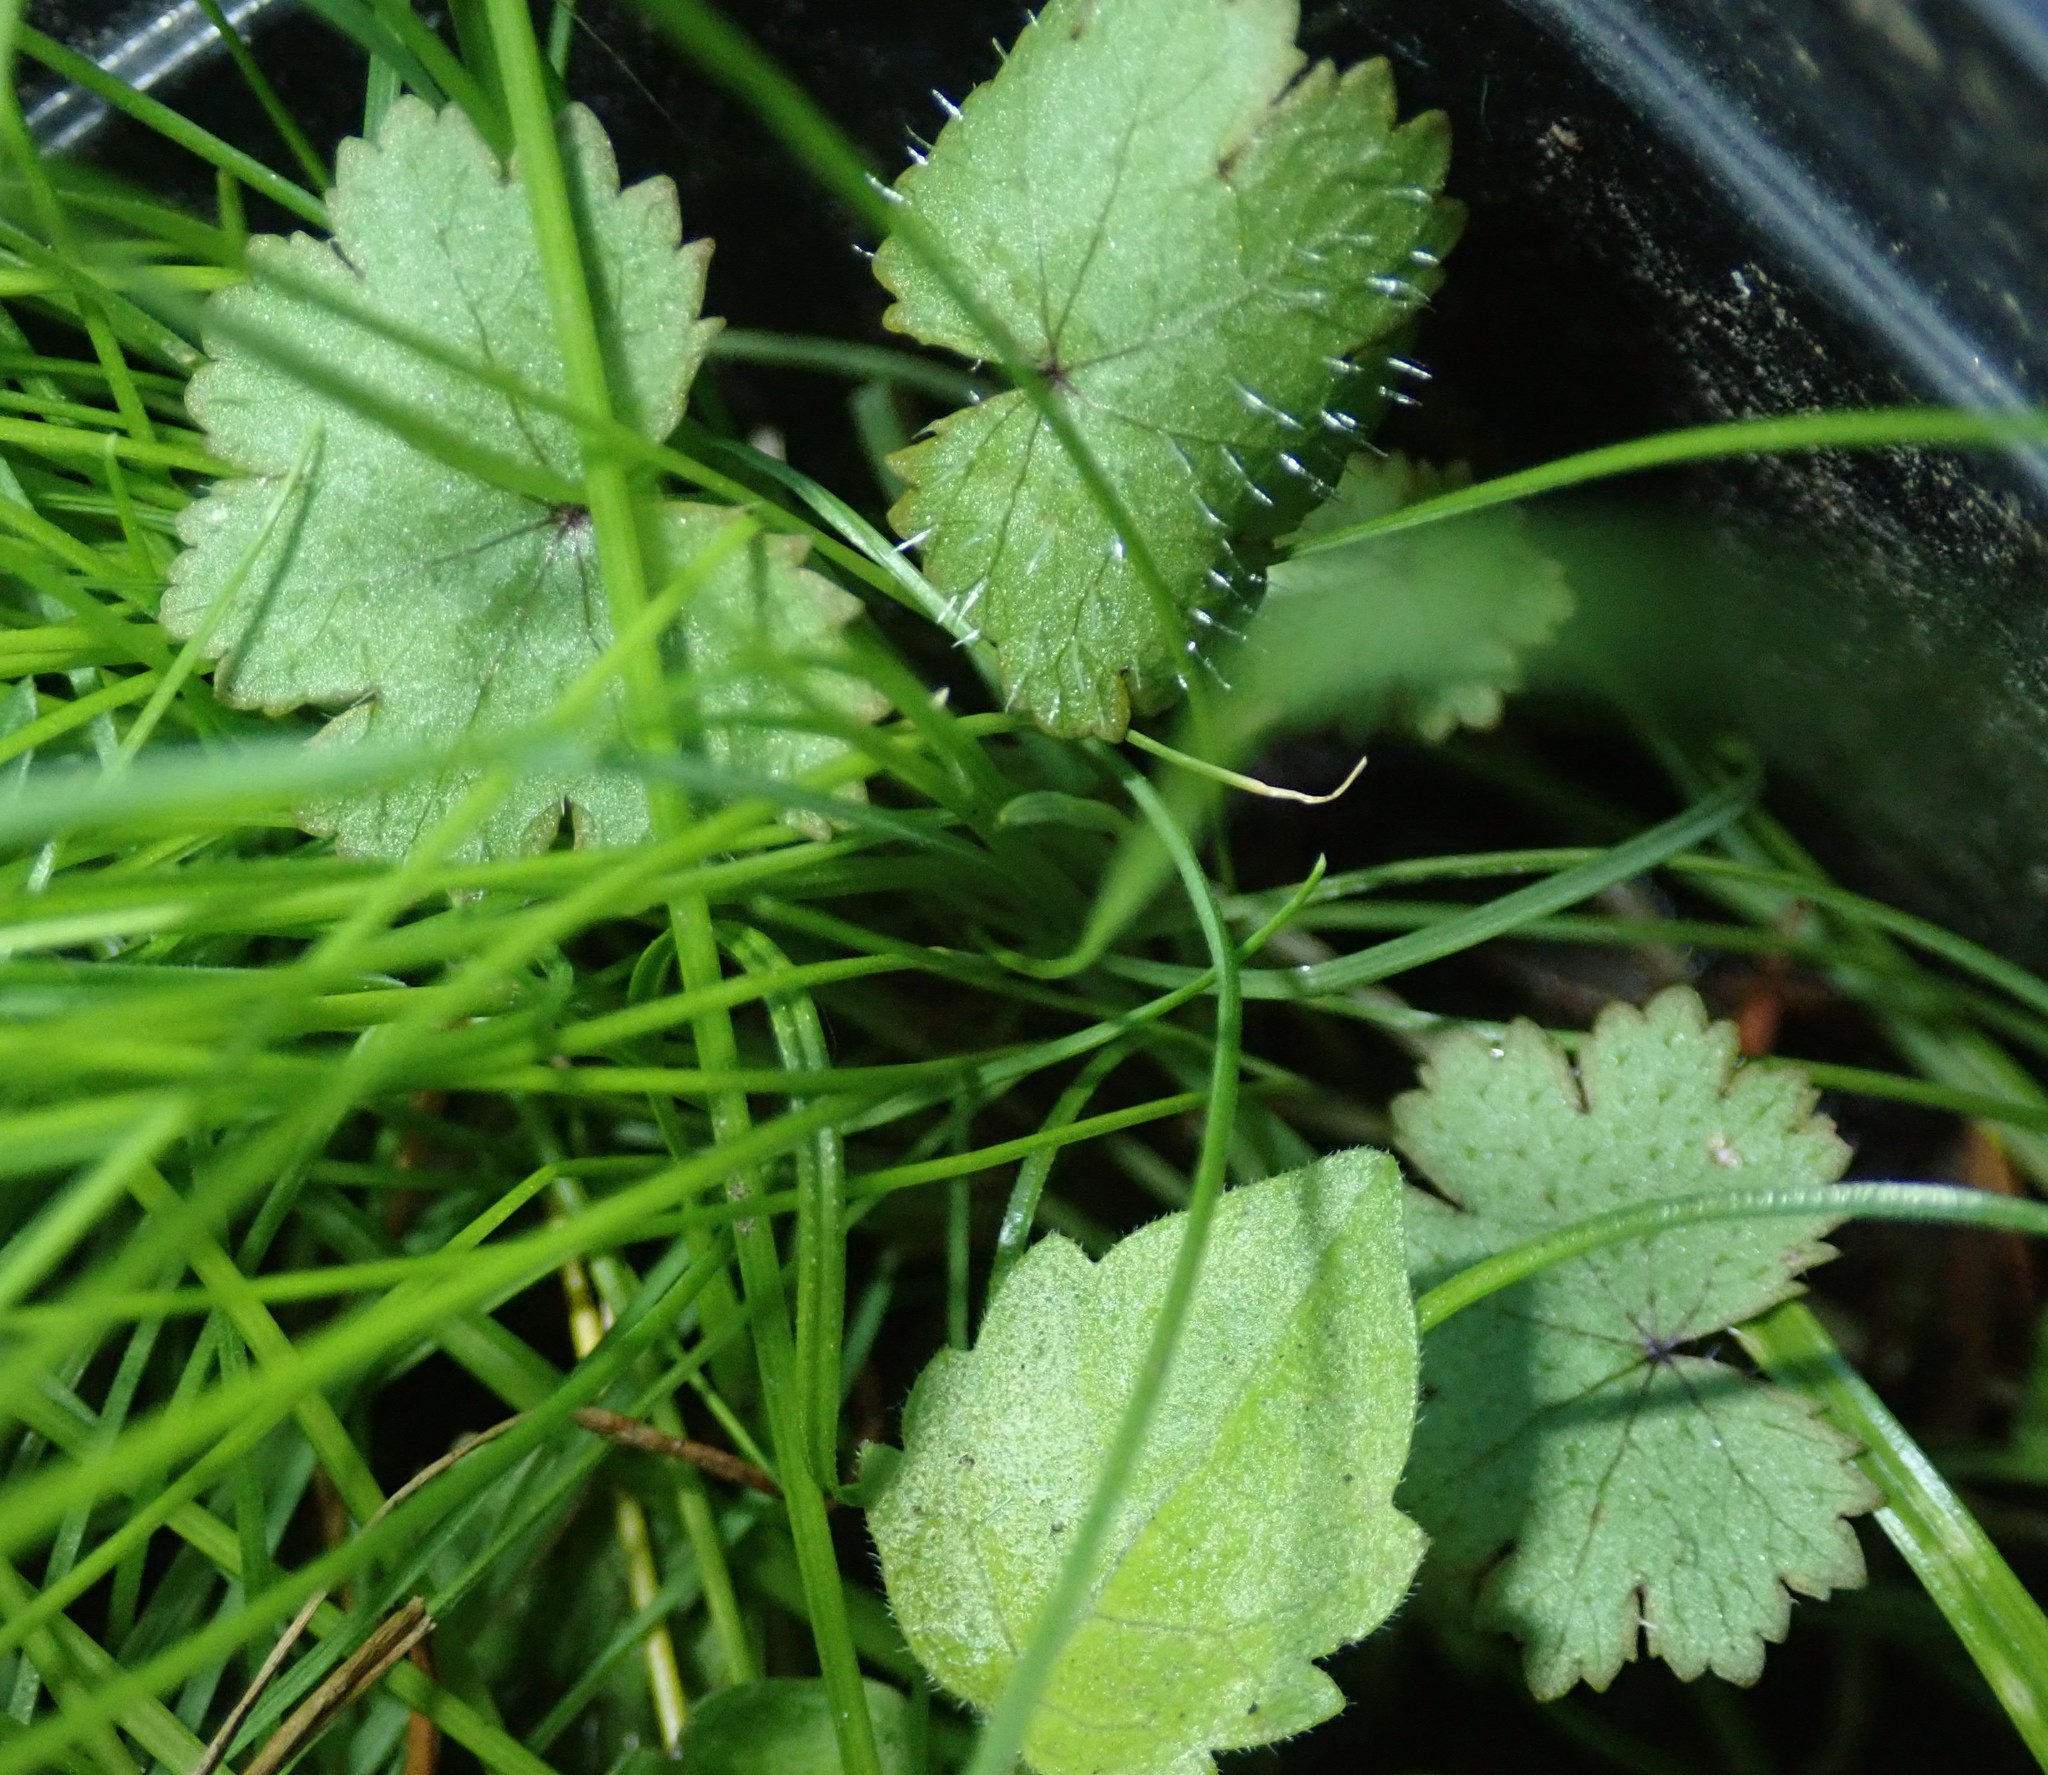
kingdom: Plantae
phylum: Tracheophyta
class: Magnoliopsida
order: Apiales
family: Araliaceae
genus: Hydrocotyle
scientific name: Hydrocotyle moschata
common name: Hairy pennywort
